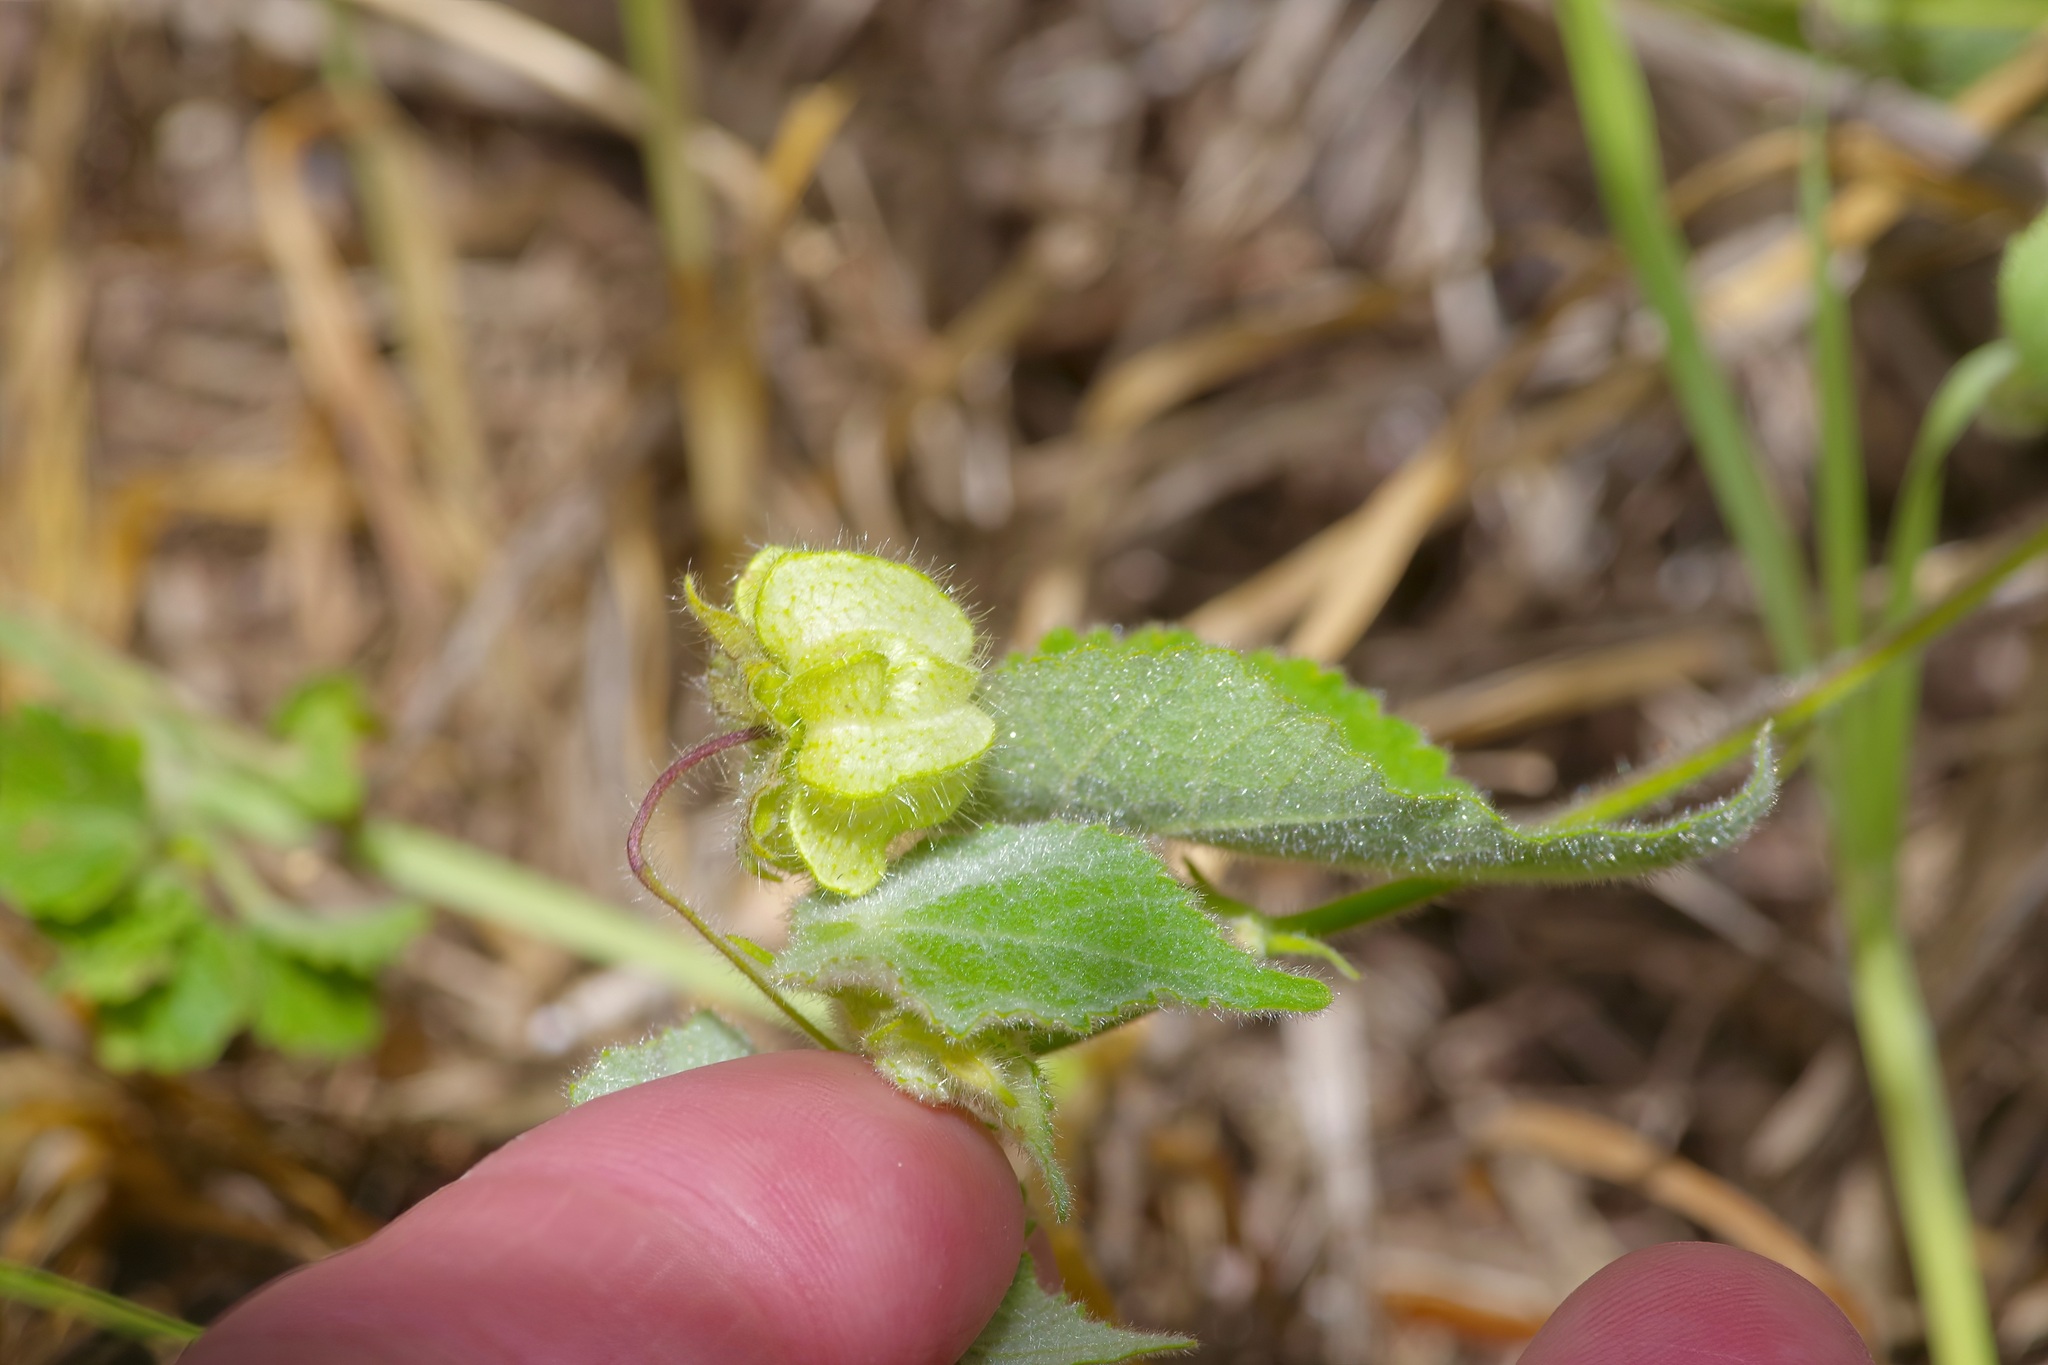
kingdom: Plantae
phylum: Tracheophyta
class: Magnoliopsida
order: Malvales
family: Malvaceae
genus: Herissantia
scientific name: Herissantia crispa
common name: Bladdermallow
